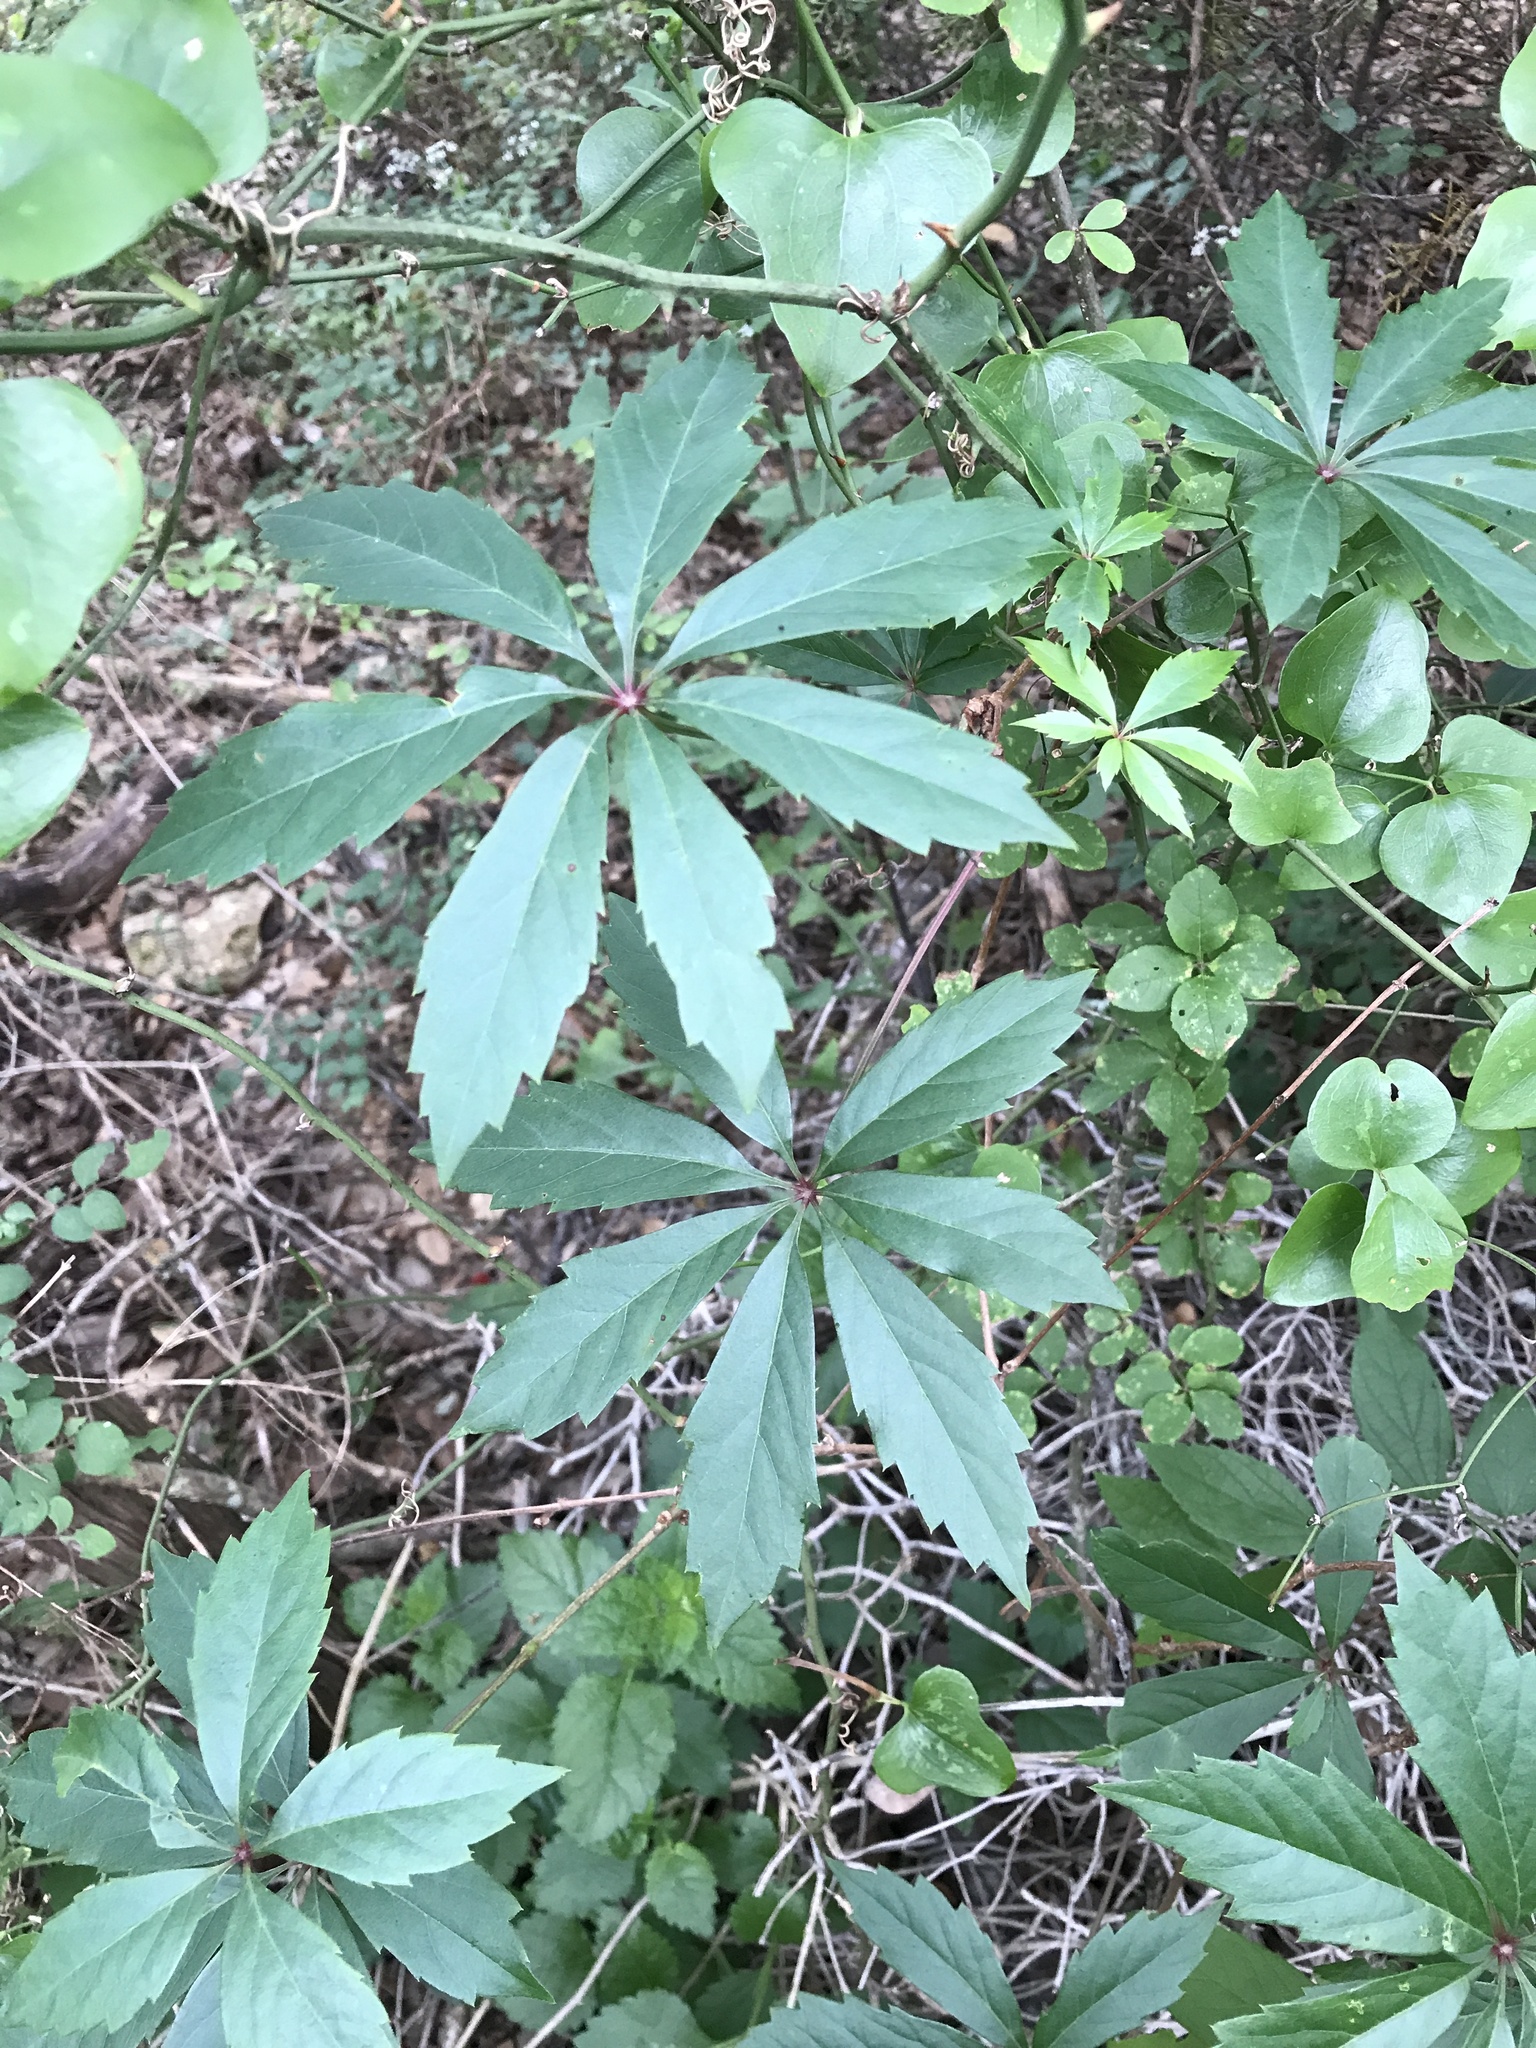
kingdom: Plantae
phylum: Tracheophyta
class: Magnoliopsida
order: Vitales
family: Vitaceae
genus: Parthenocissus
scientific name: Parthenocissus heptaphylla
